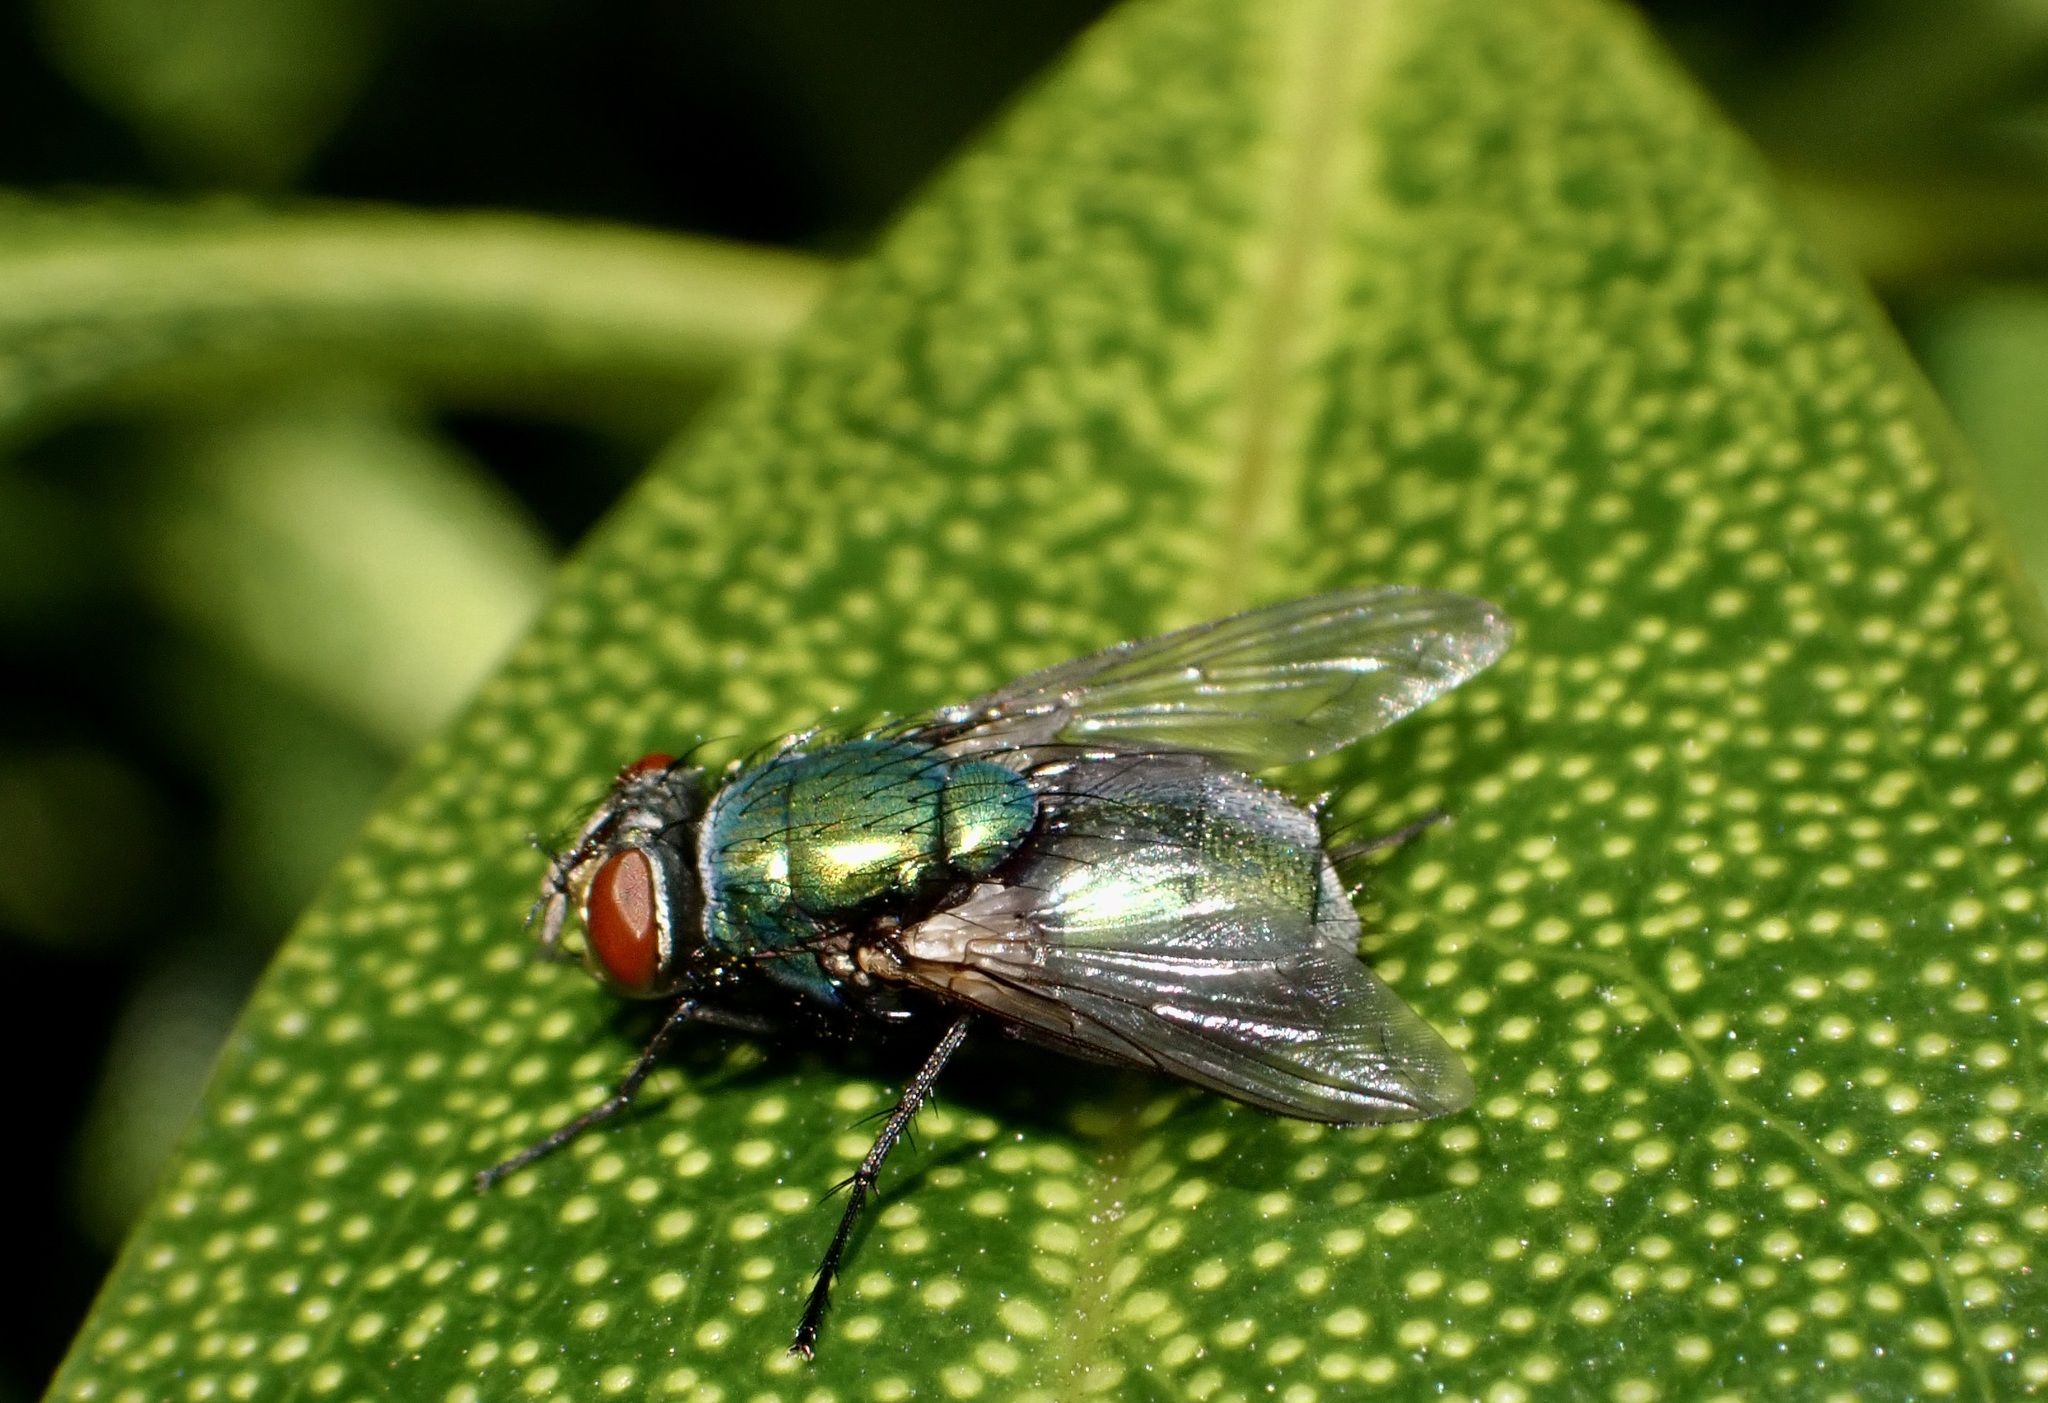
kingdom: Animalia
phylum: Arthropoda
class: Insecta
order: Diptera
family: Calliphoridae
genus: Lucilia
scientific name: Lucilia sericata
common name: Blow fly
